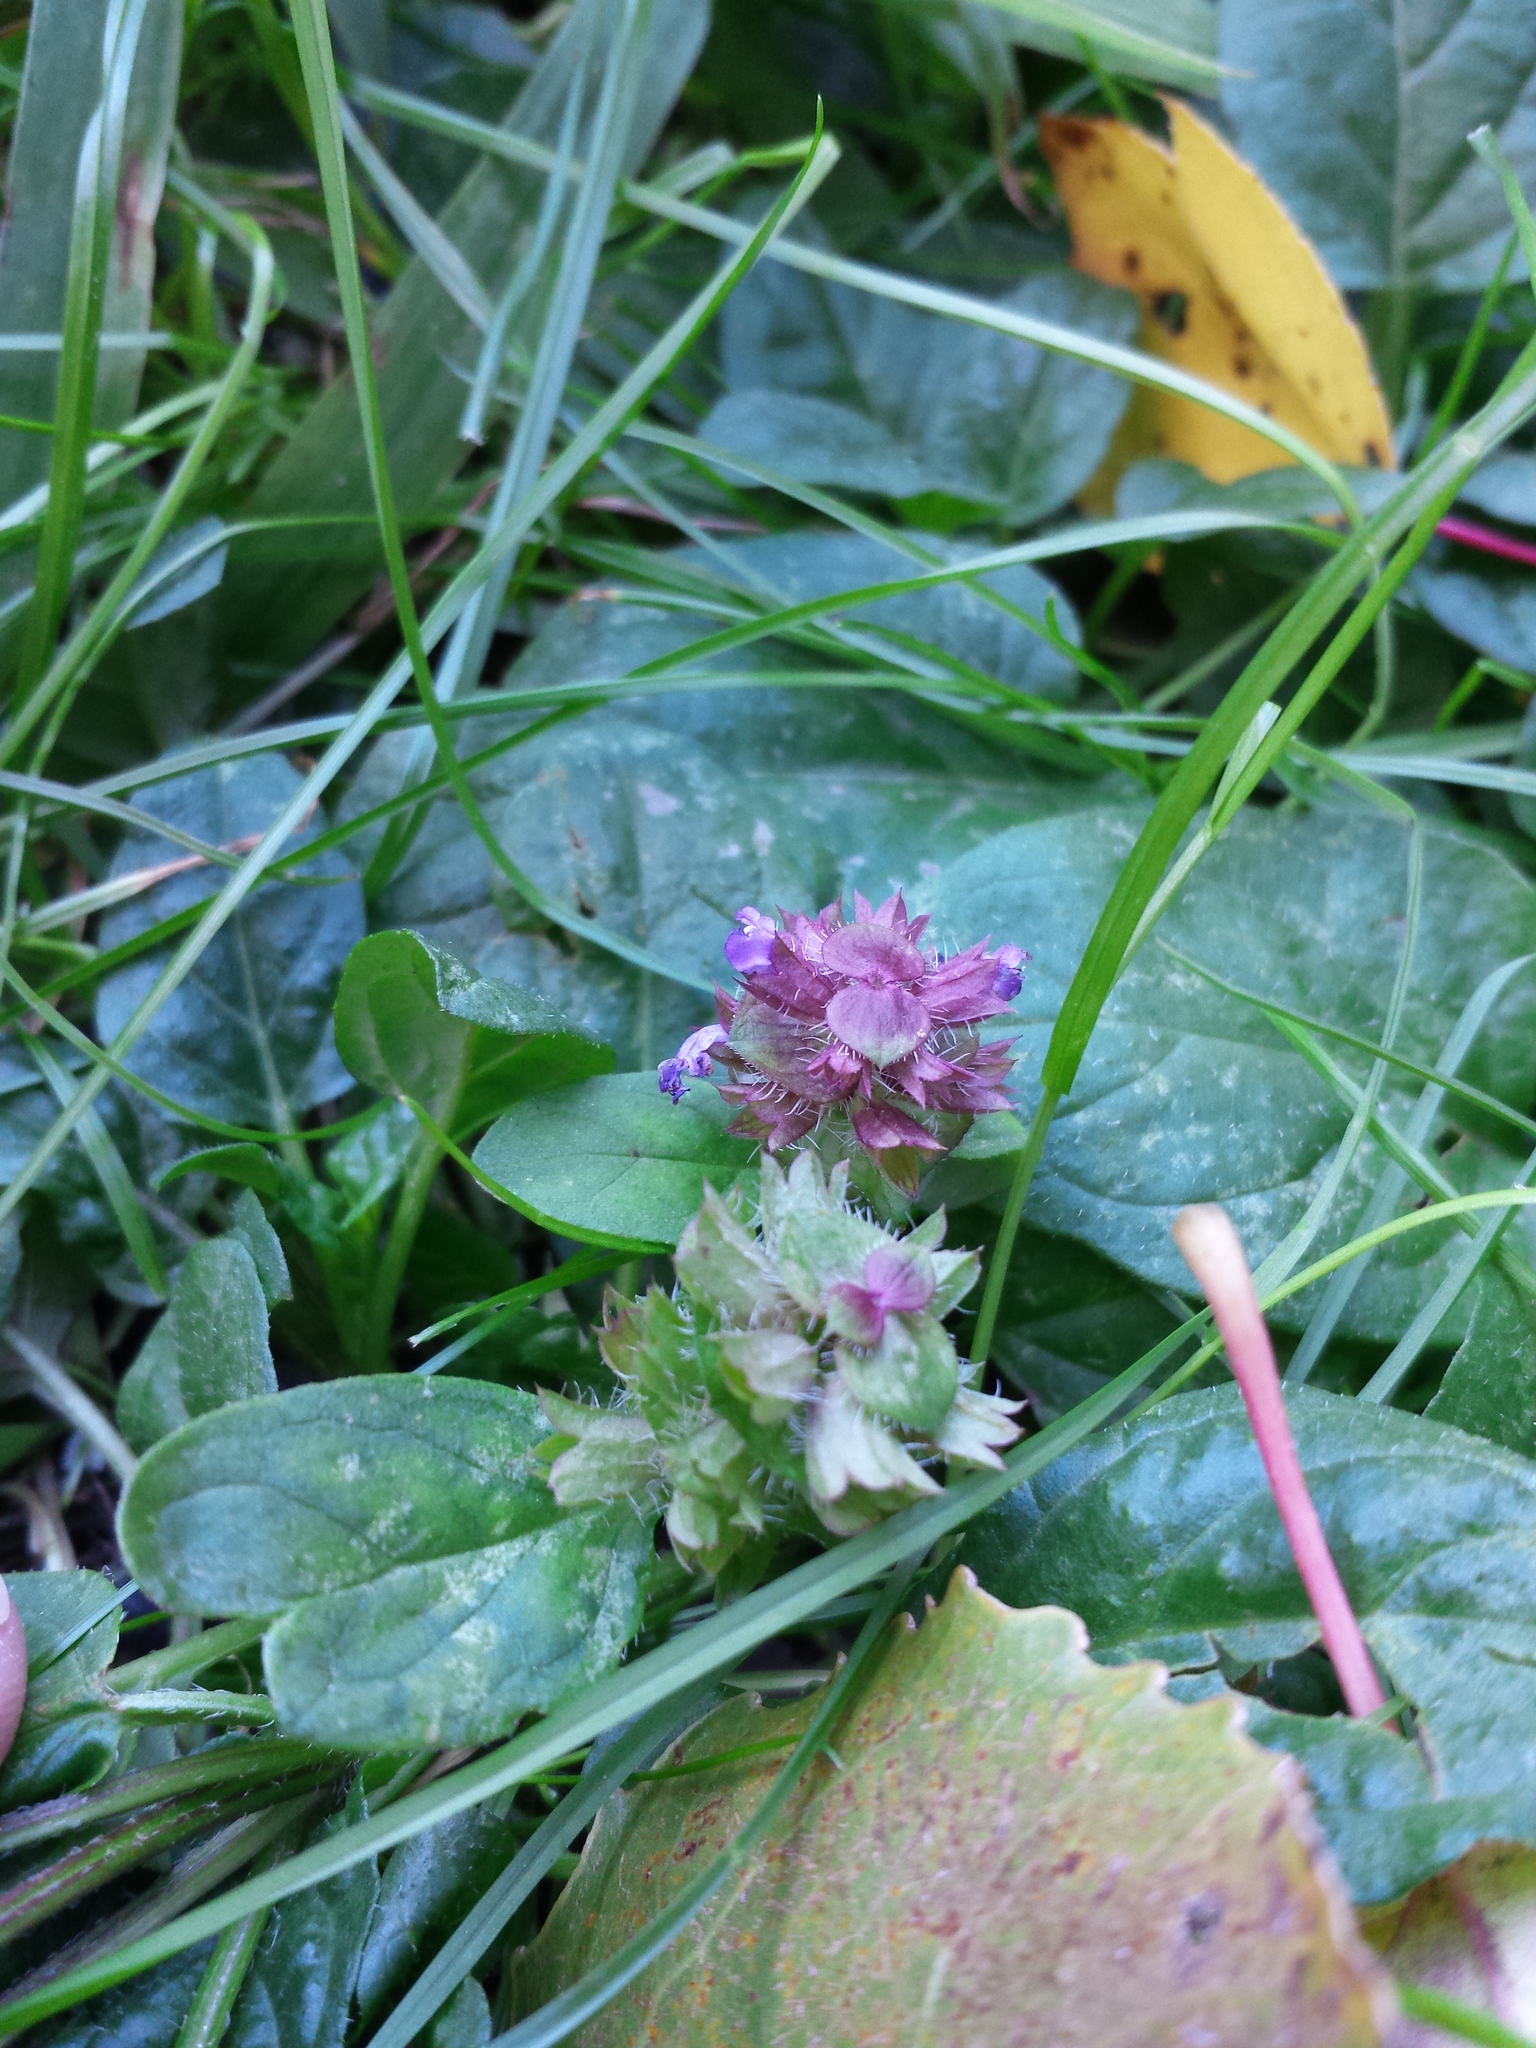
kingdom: Plantae
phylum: Tracheophyta
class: Magnoliopsida
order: Lamiales
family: Lamiaceae
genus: Prunella
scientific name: Prunella vulgaris
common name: Heal-all
